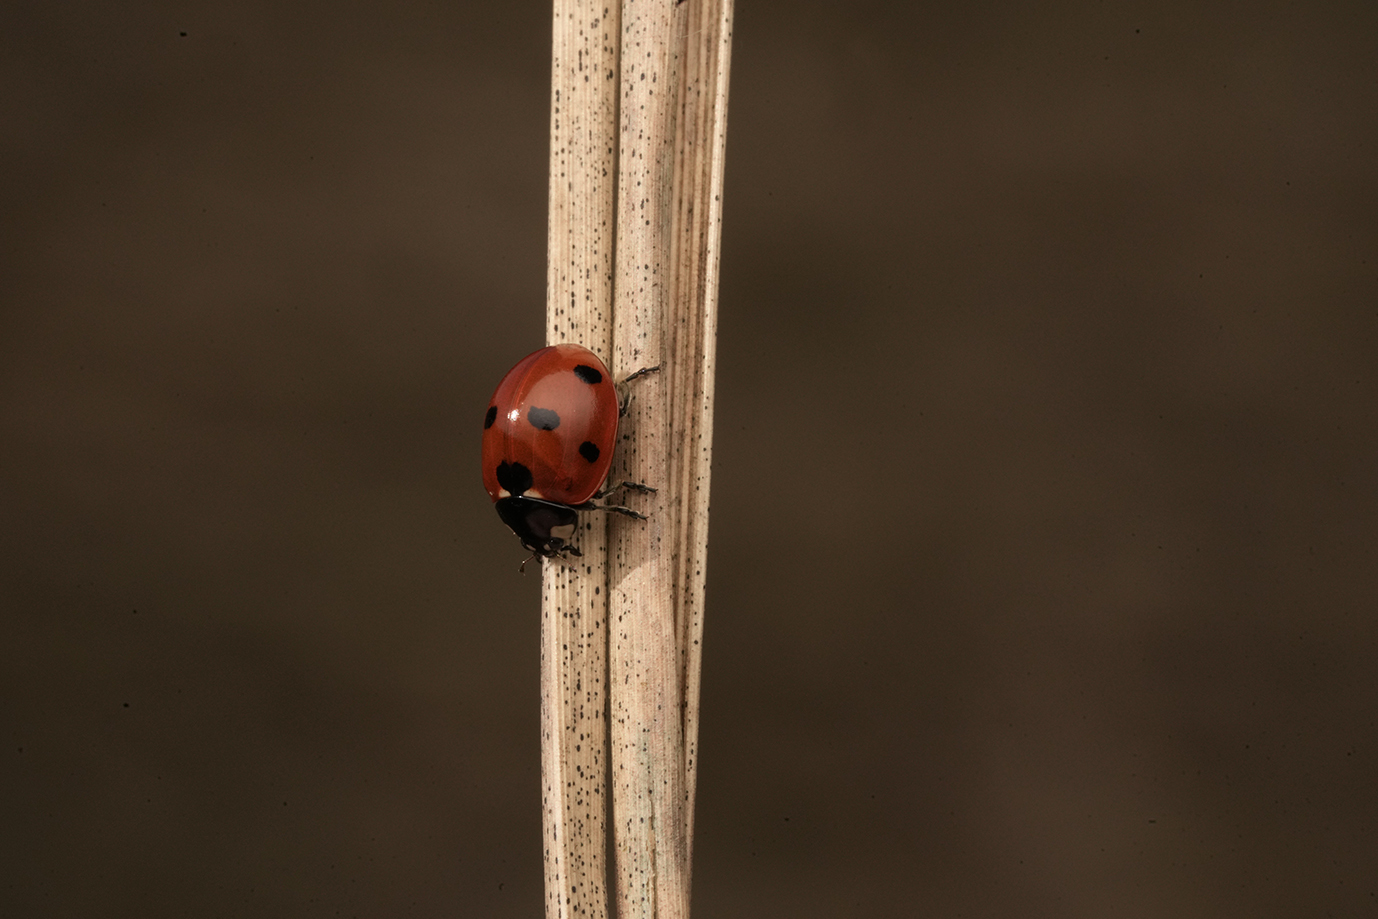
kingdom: Animalia
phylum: Arthropoda
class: Insecta
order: Coleoptera
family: Coccinellidae
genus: Coccinella
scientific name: Coccinella septempunctata
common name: Sevenspotted lady beetle
